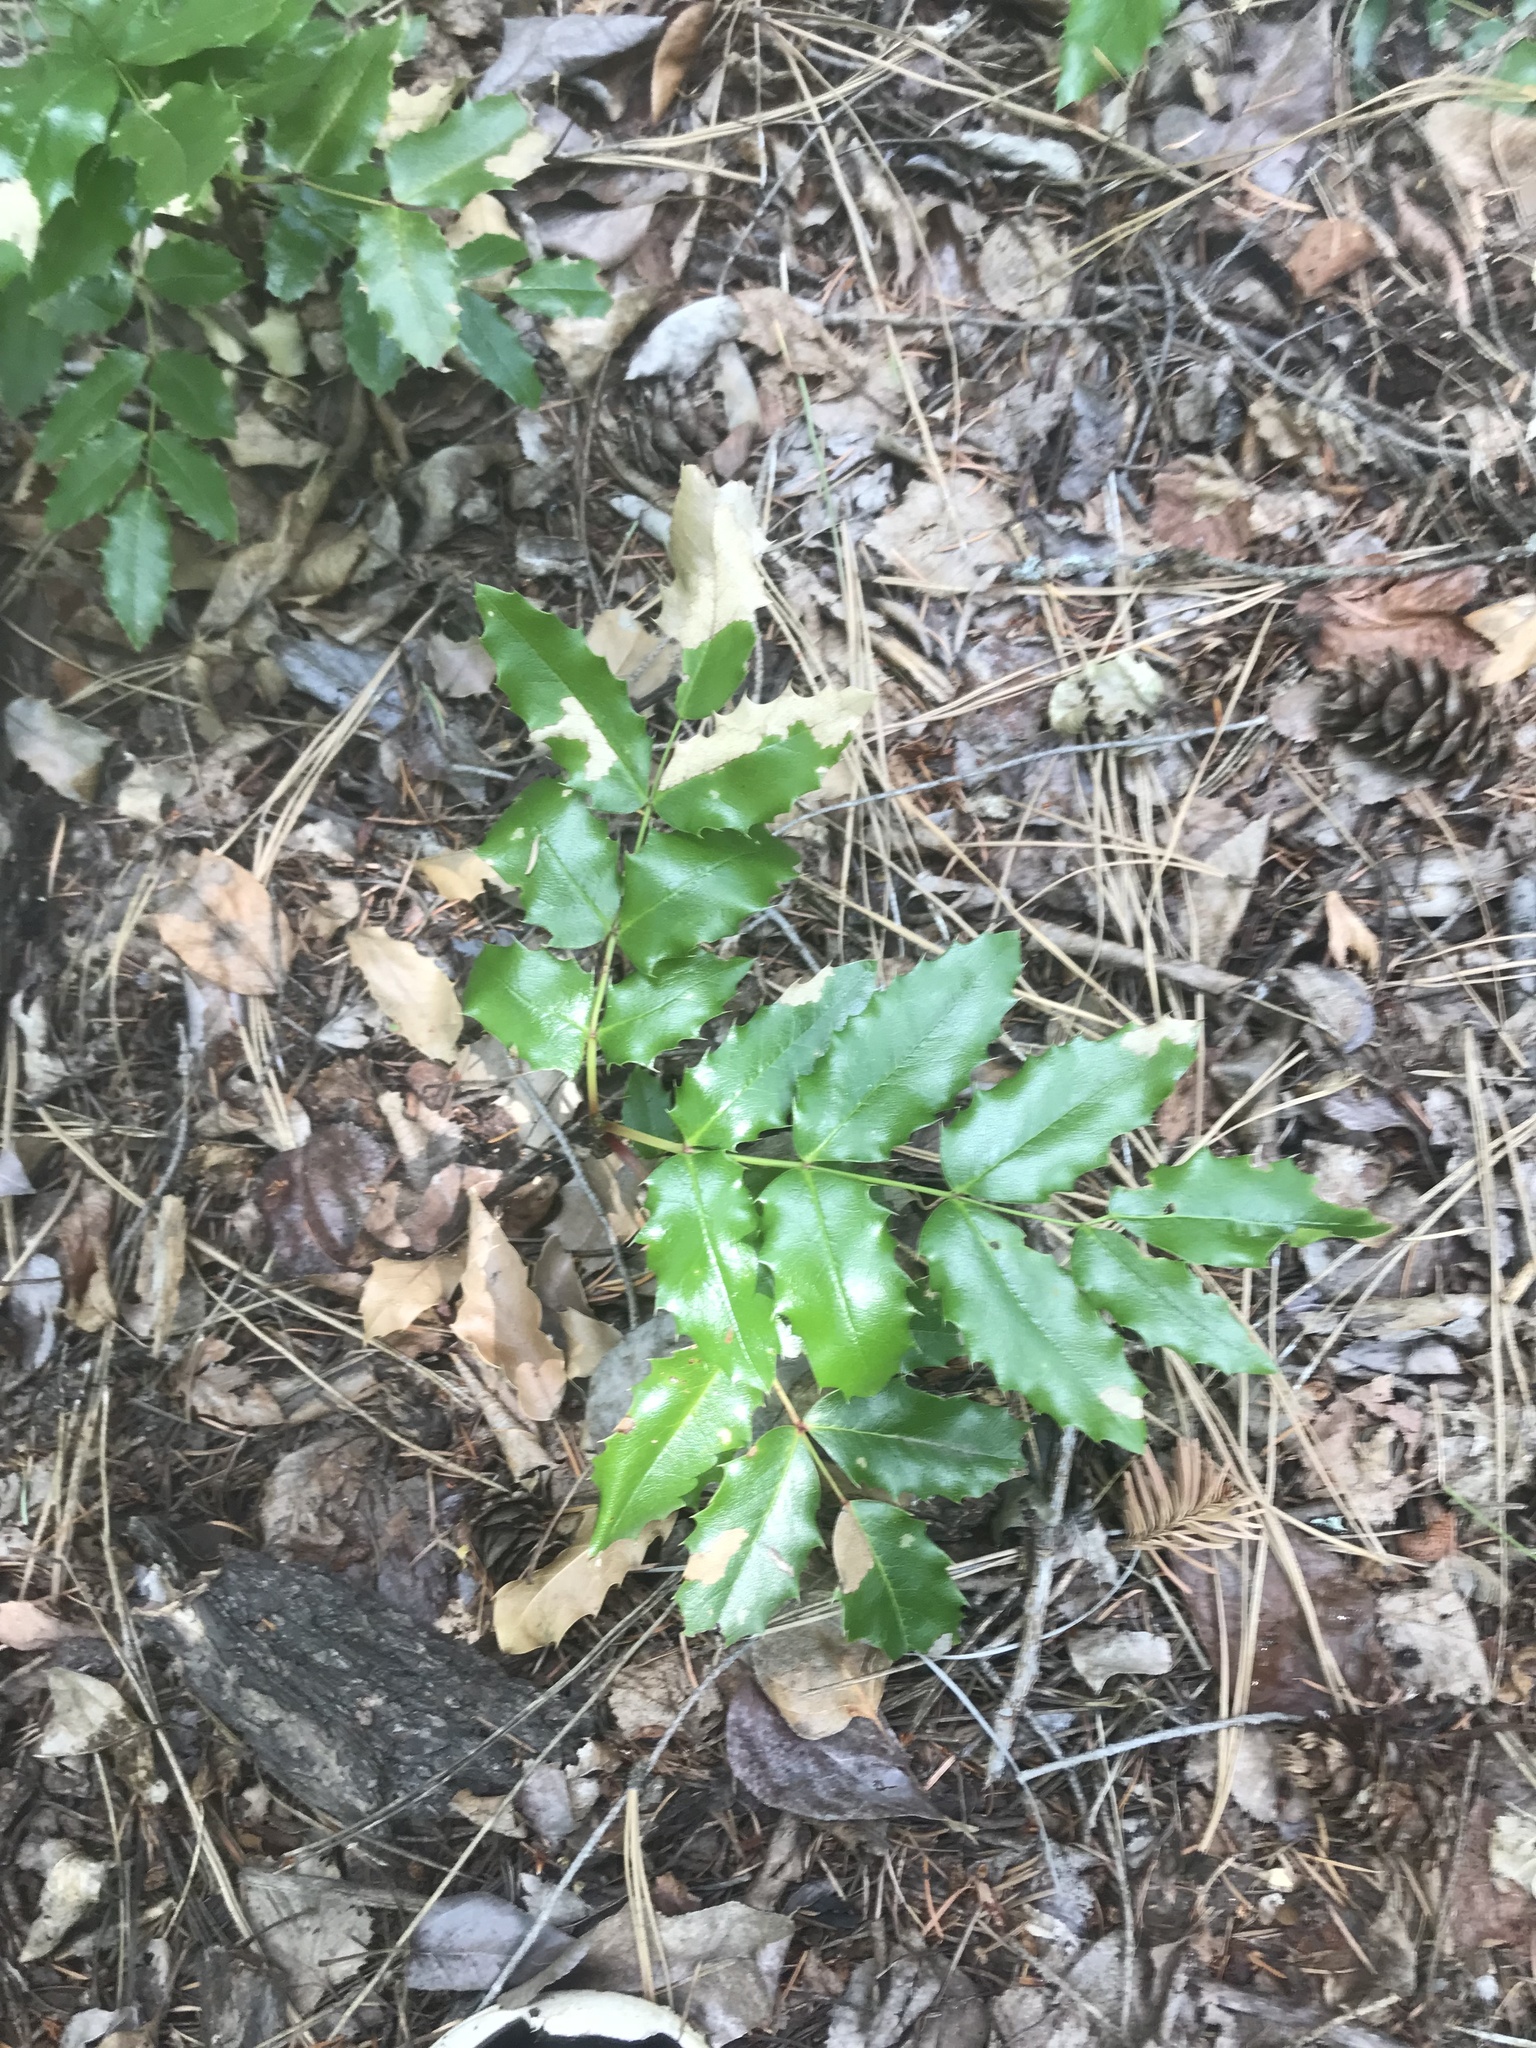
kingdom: Plantae
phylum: Tracheophyta
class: Magnoliopsida
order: Ranunculales
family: Berberidaceae
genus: Mahonia
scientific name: Mahonia aquifolium
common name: Oregon-grape
